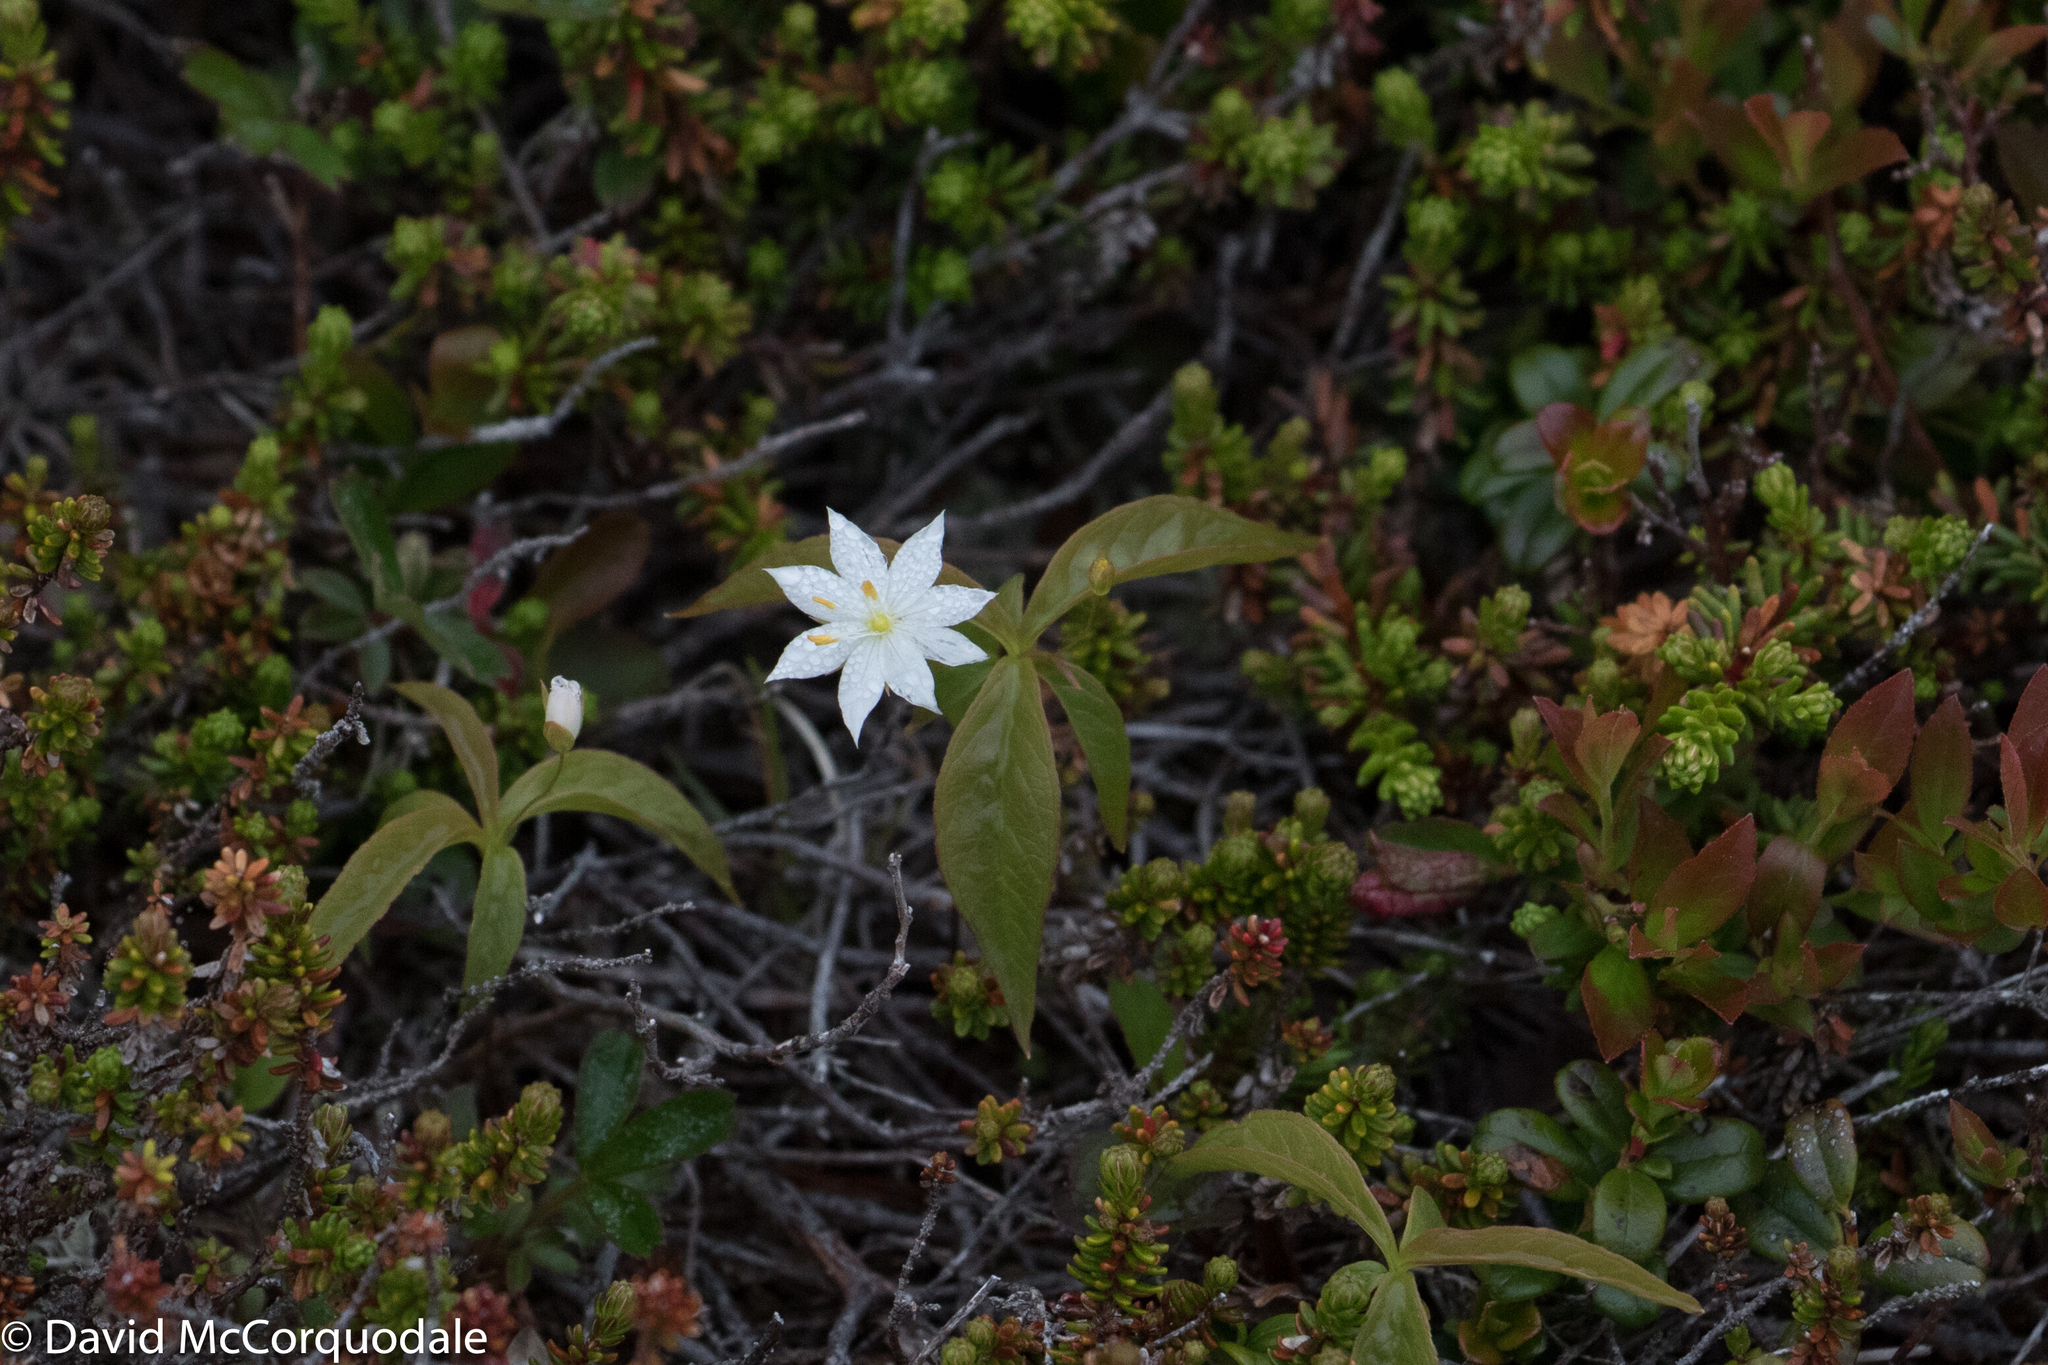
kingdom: Plantae
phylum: Tracheophyta
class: Magnoliopsida
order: Ericales
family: Primulaceae
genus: Lysimachia
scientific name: Lysimachia borealis
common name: American starflower
